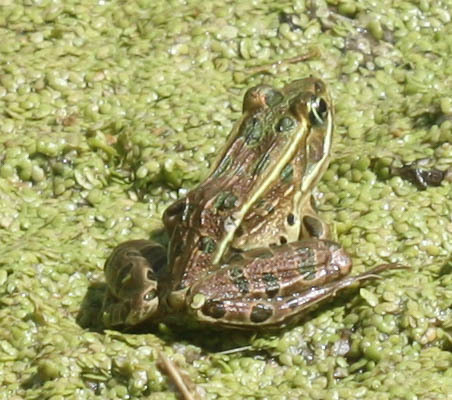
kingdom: Animalia
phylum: Chordata
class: Amphibia
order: Anura
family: Ranidae
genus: Lithobates
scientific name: Lithobates pipiens
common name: Northern leopard frog
